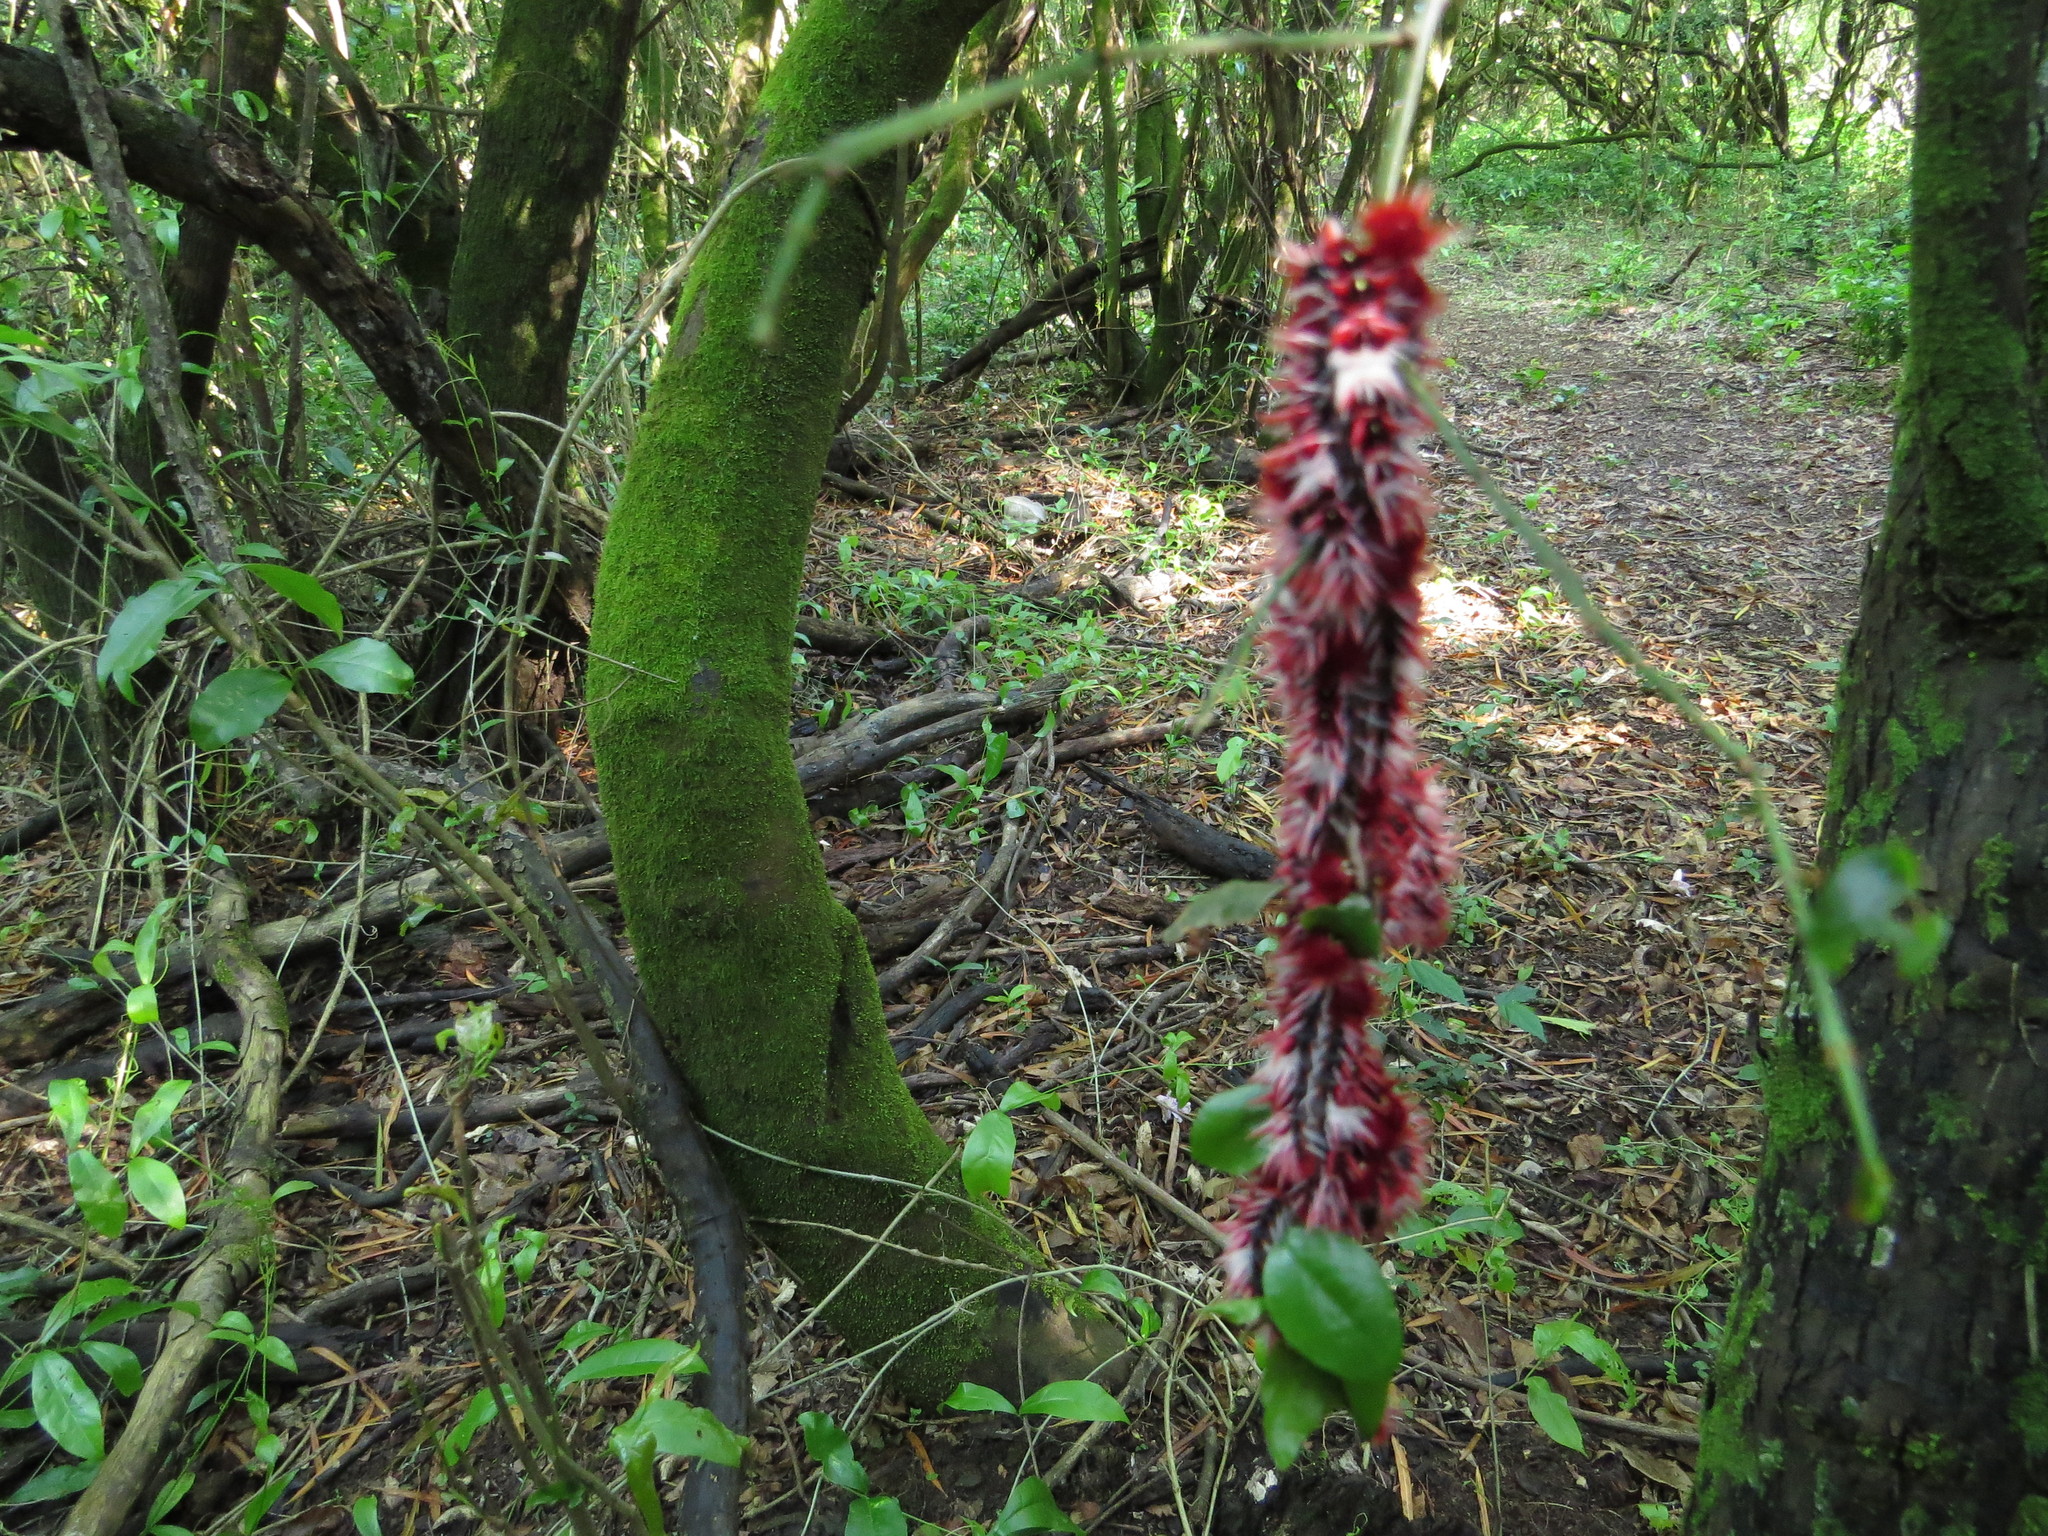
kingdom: Animalia
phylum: Arthropoda
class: Insecta
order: Lepidoptera
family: Nymphalidae
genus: Morpho
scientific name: Morpho epistrophus
